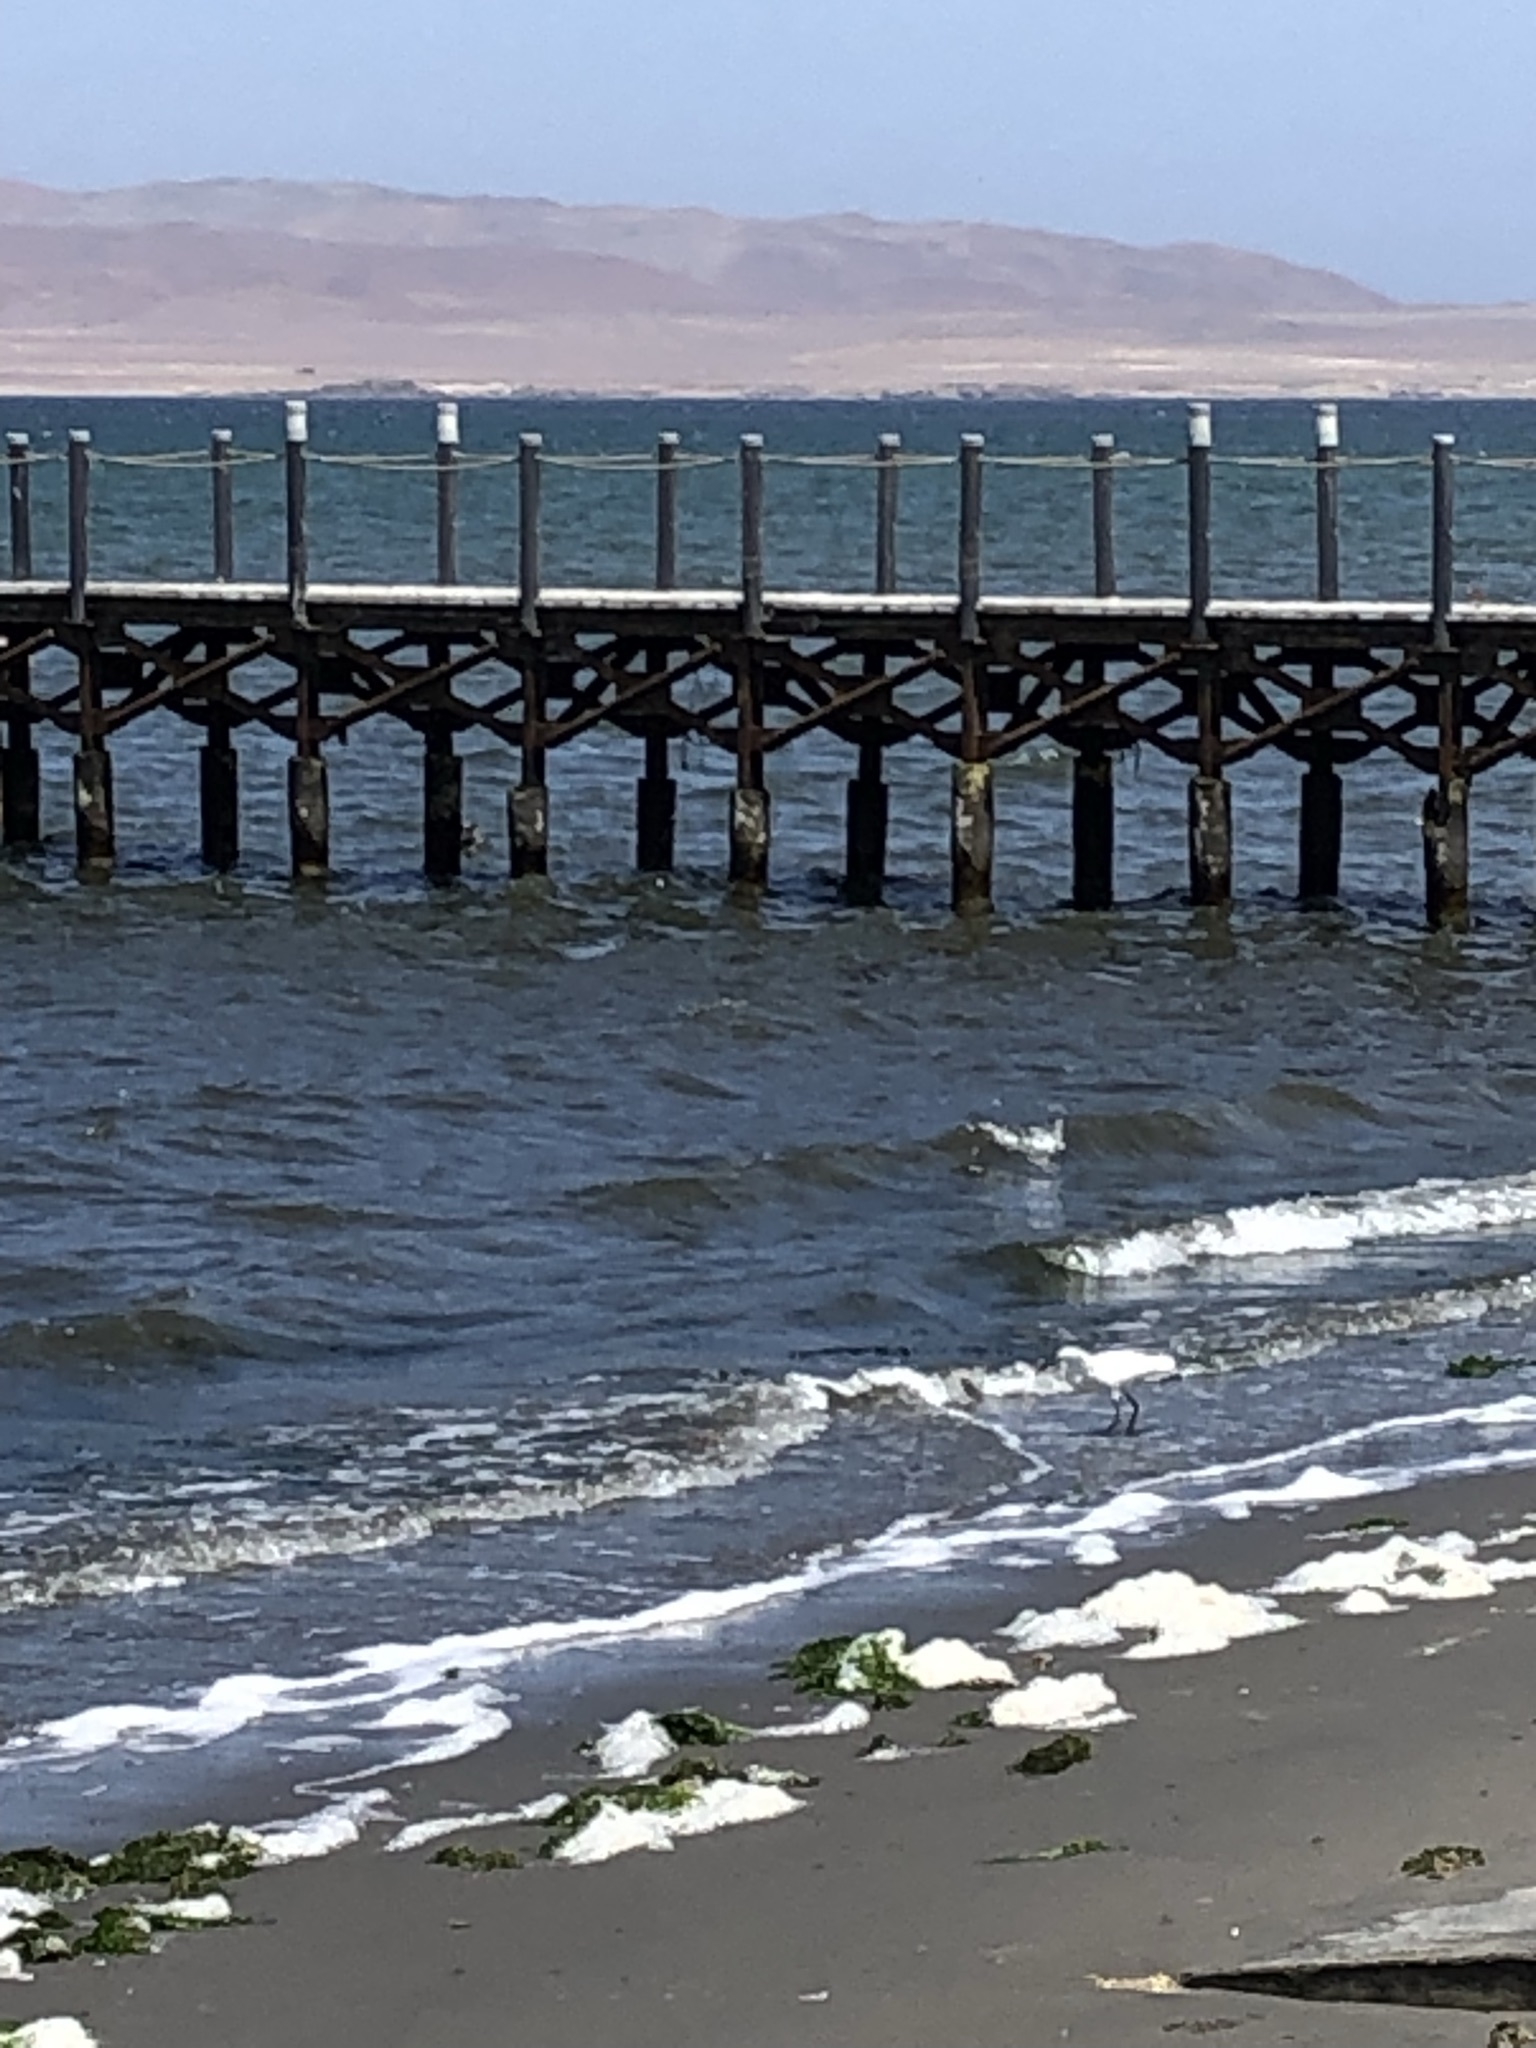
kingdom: Animalia
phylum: Chordata
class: Aves
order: Pelecaniformes
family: Ardeidae
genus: Egretta
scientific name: Egretta thula
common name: Snowy egret
